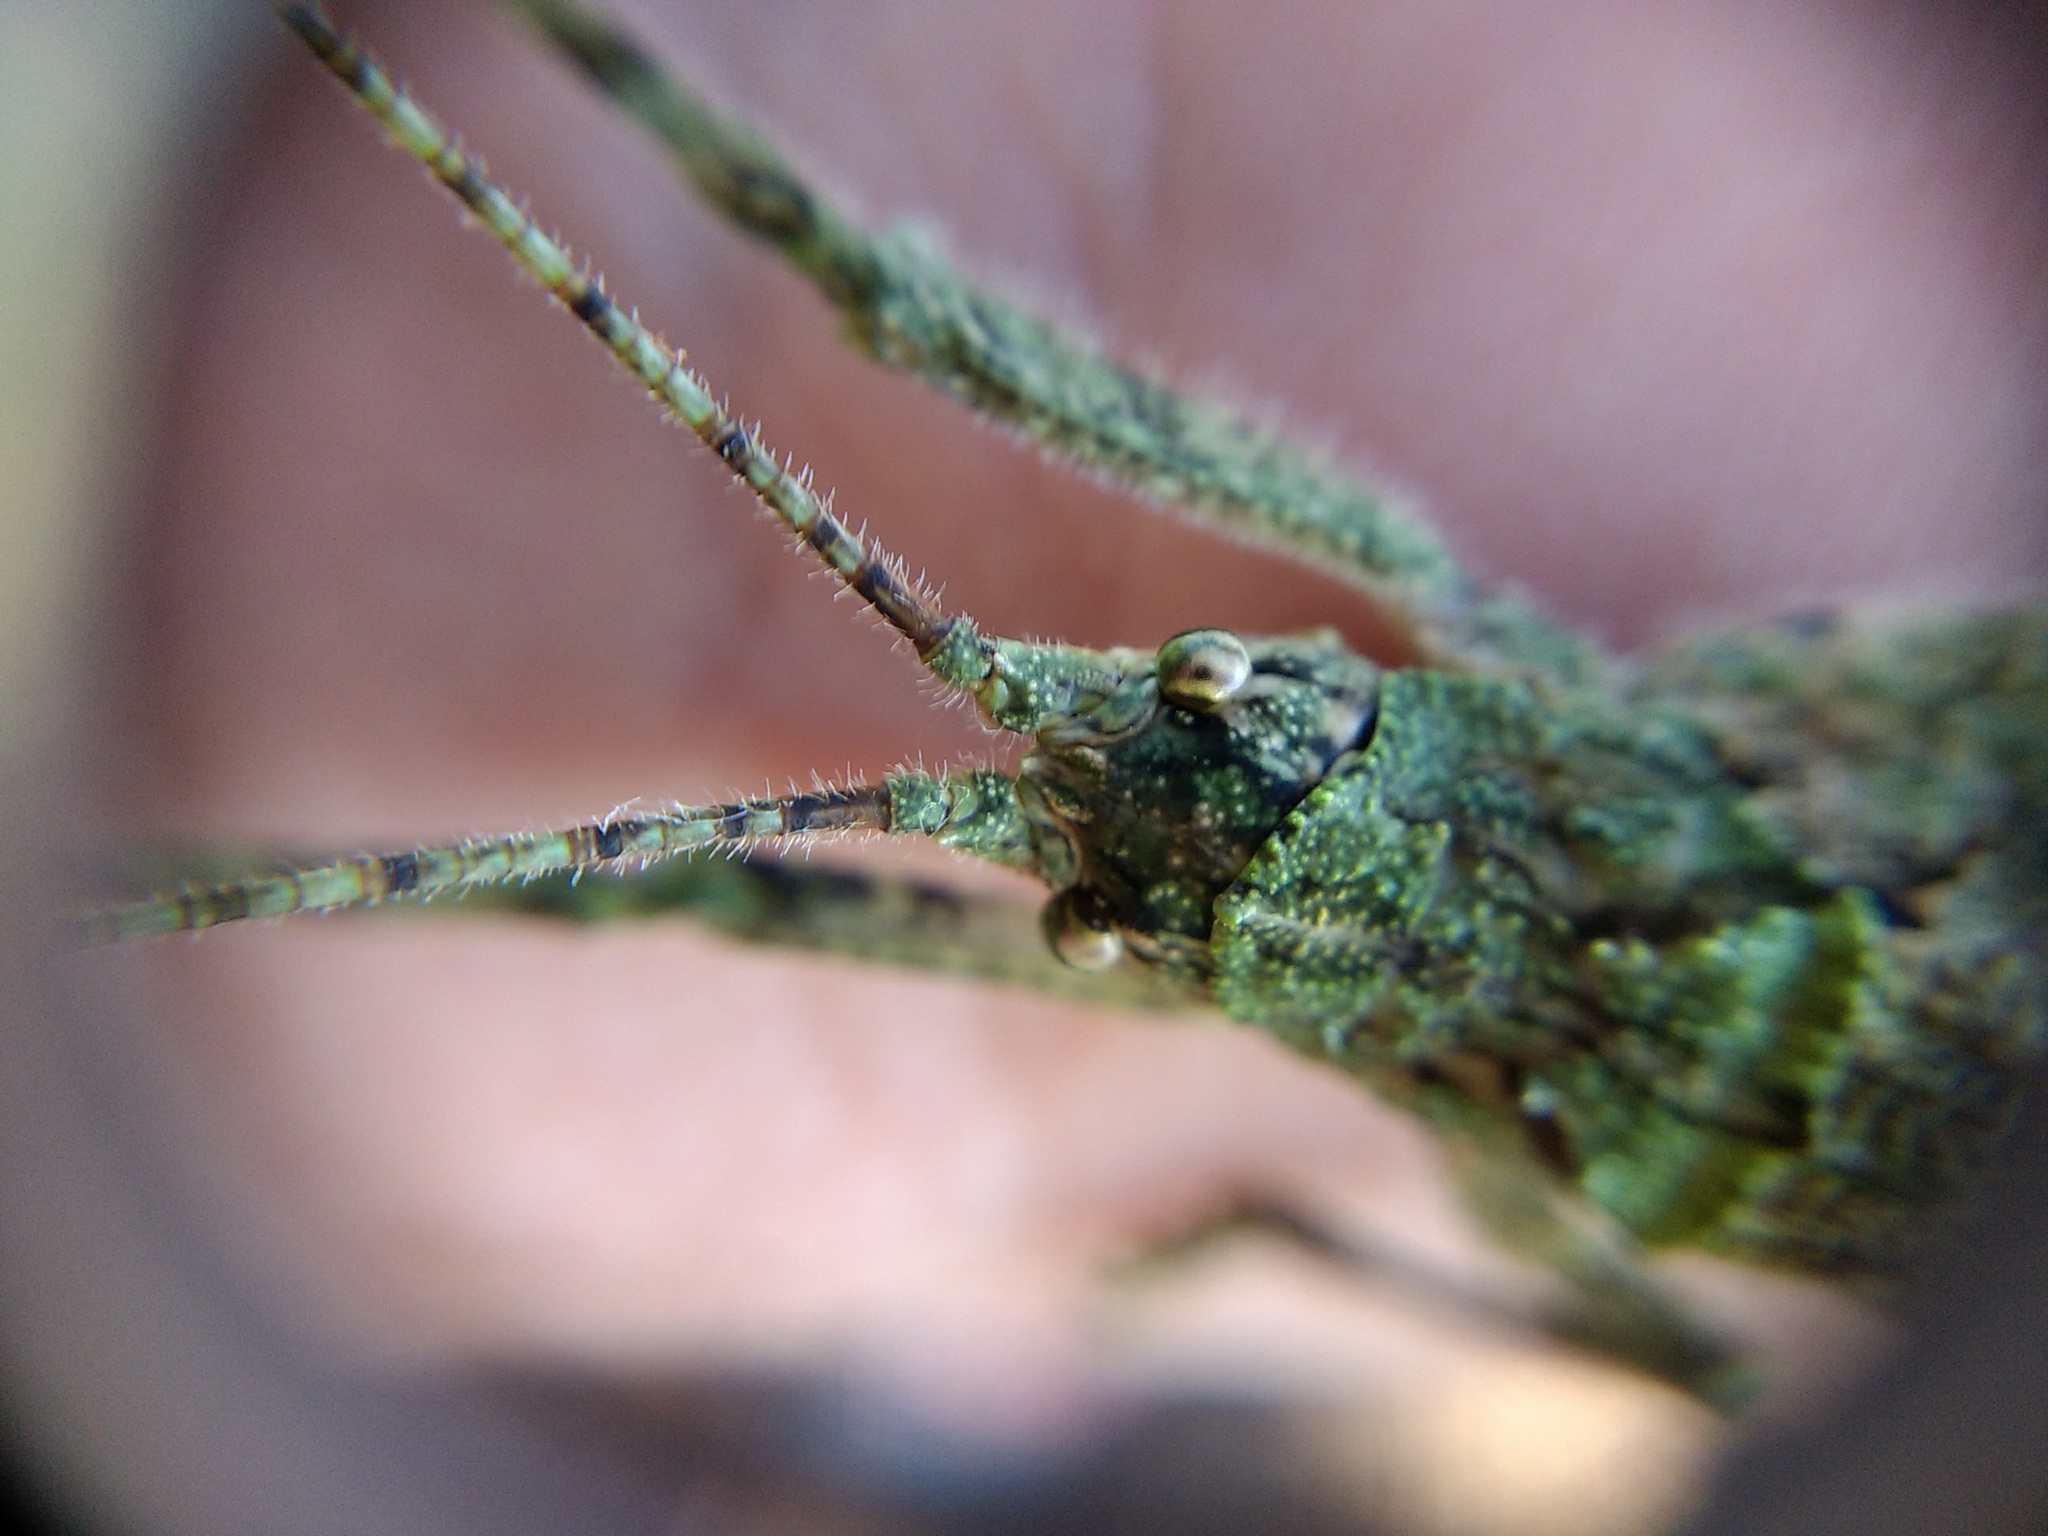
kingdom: Animalia
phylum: Arthropoda
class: Insecta
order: Orthoptera
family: Tettigoniidae
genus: Dasyscelus
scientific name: Dasyscelus normalis
